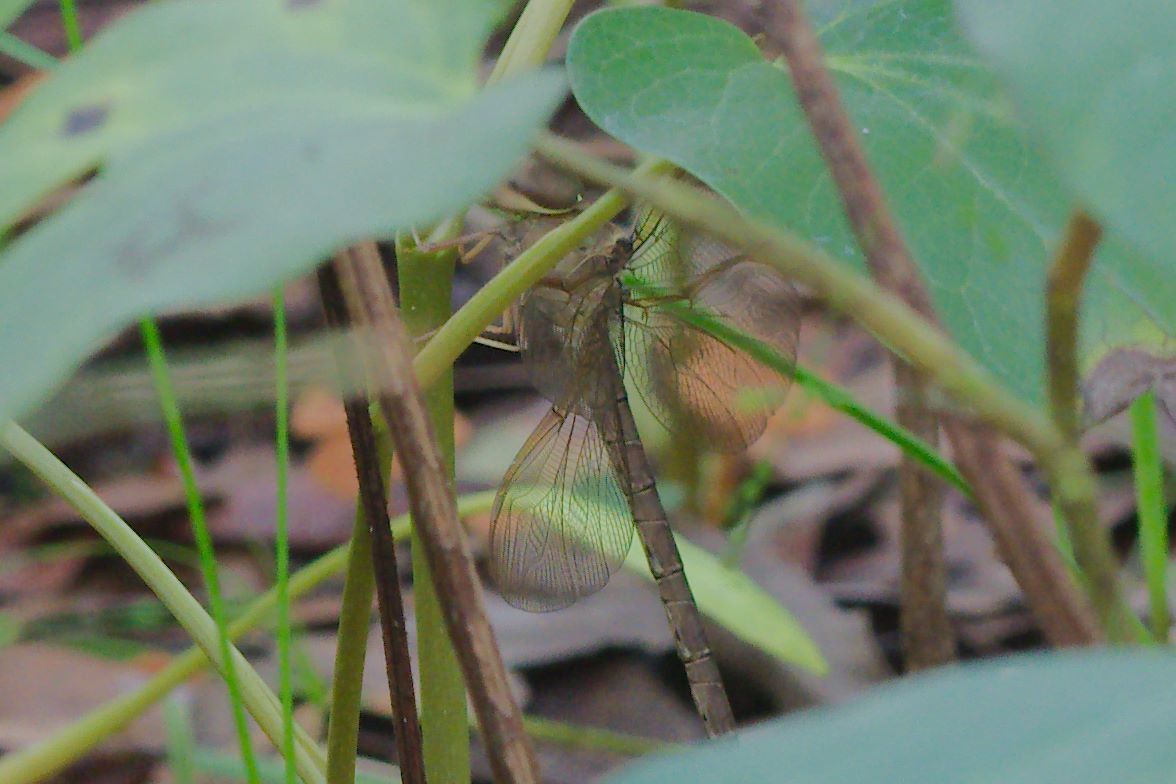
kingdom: Animalia
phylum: Arthropoda
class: Insecta
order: Odonata
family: Aeshnidae
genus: Gynacantha
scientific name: Gynacantha nervosa
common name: Twilight darner
